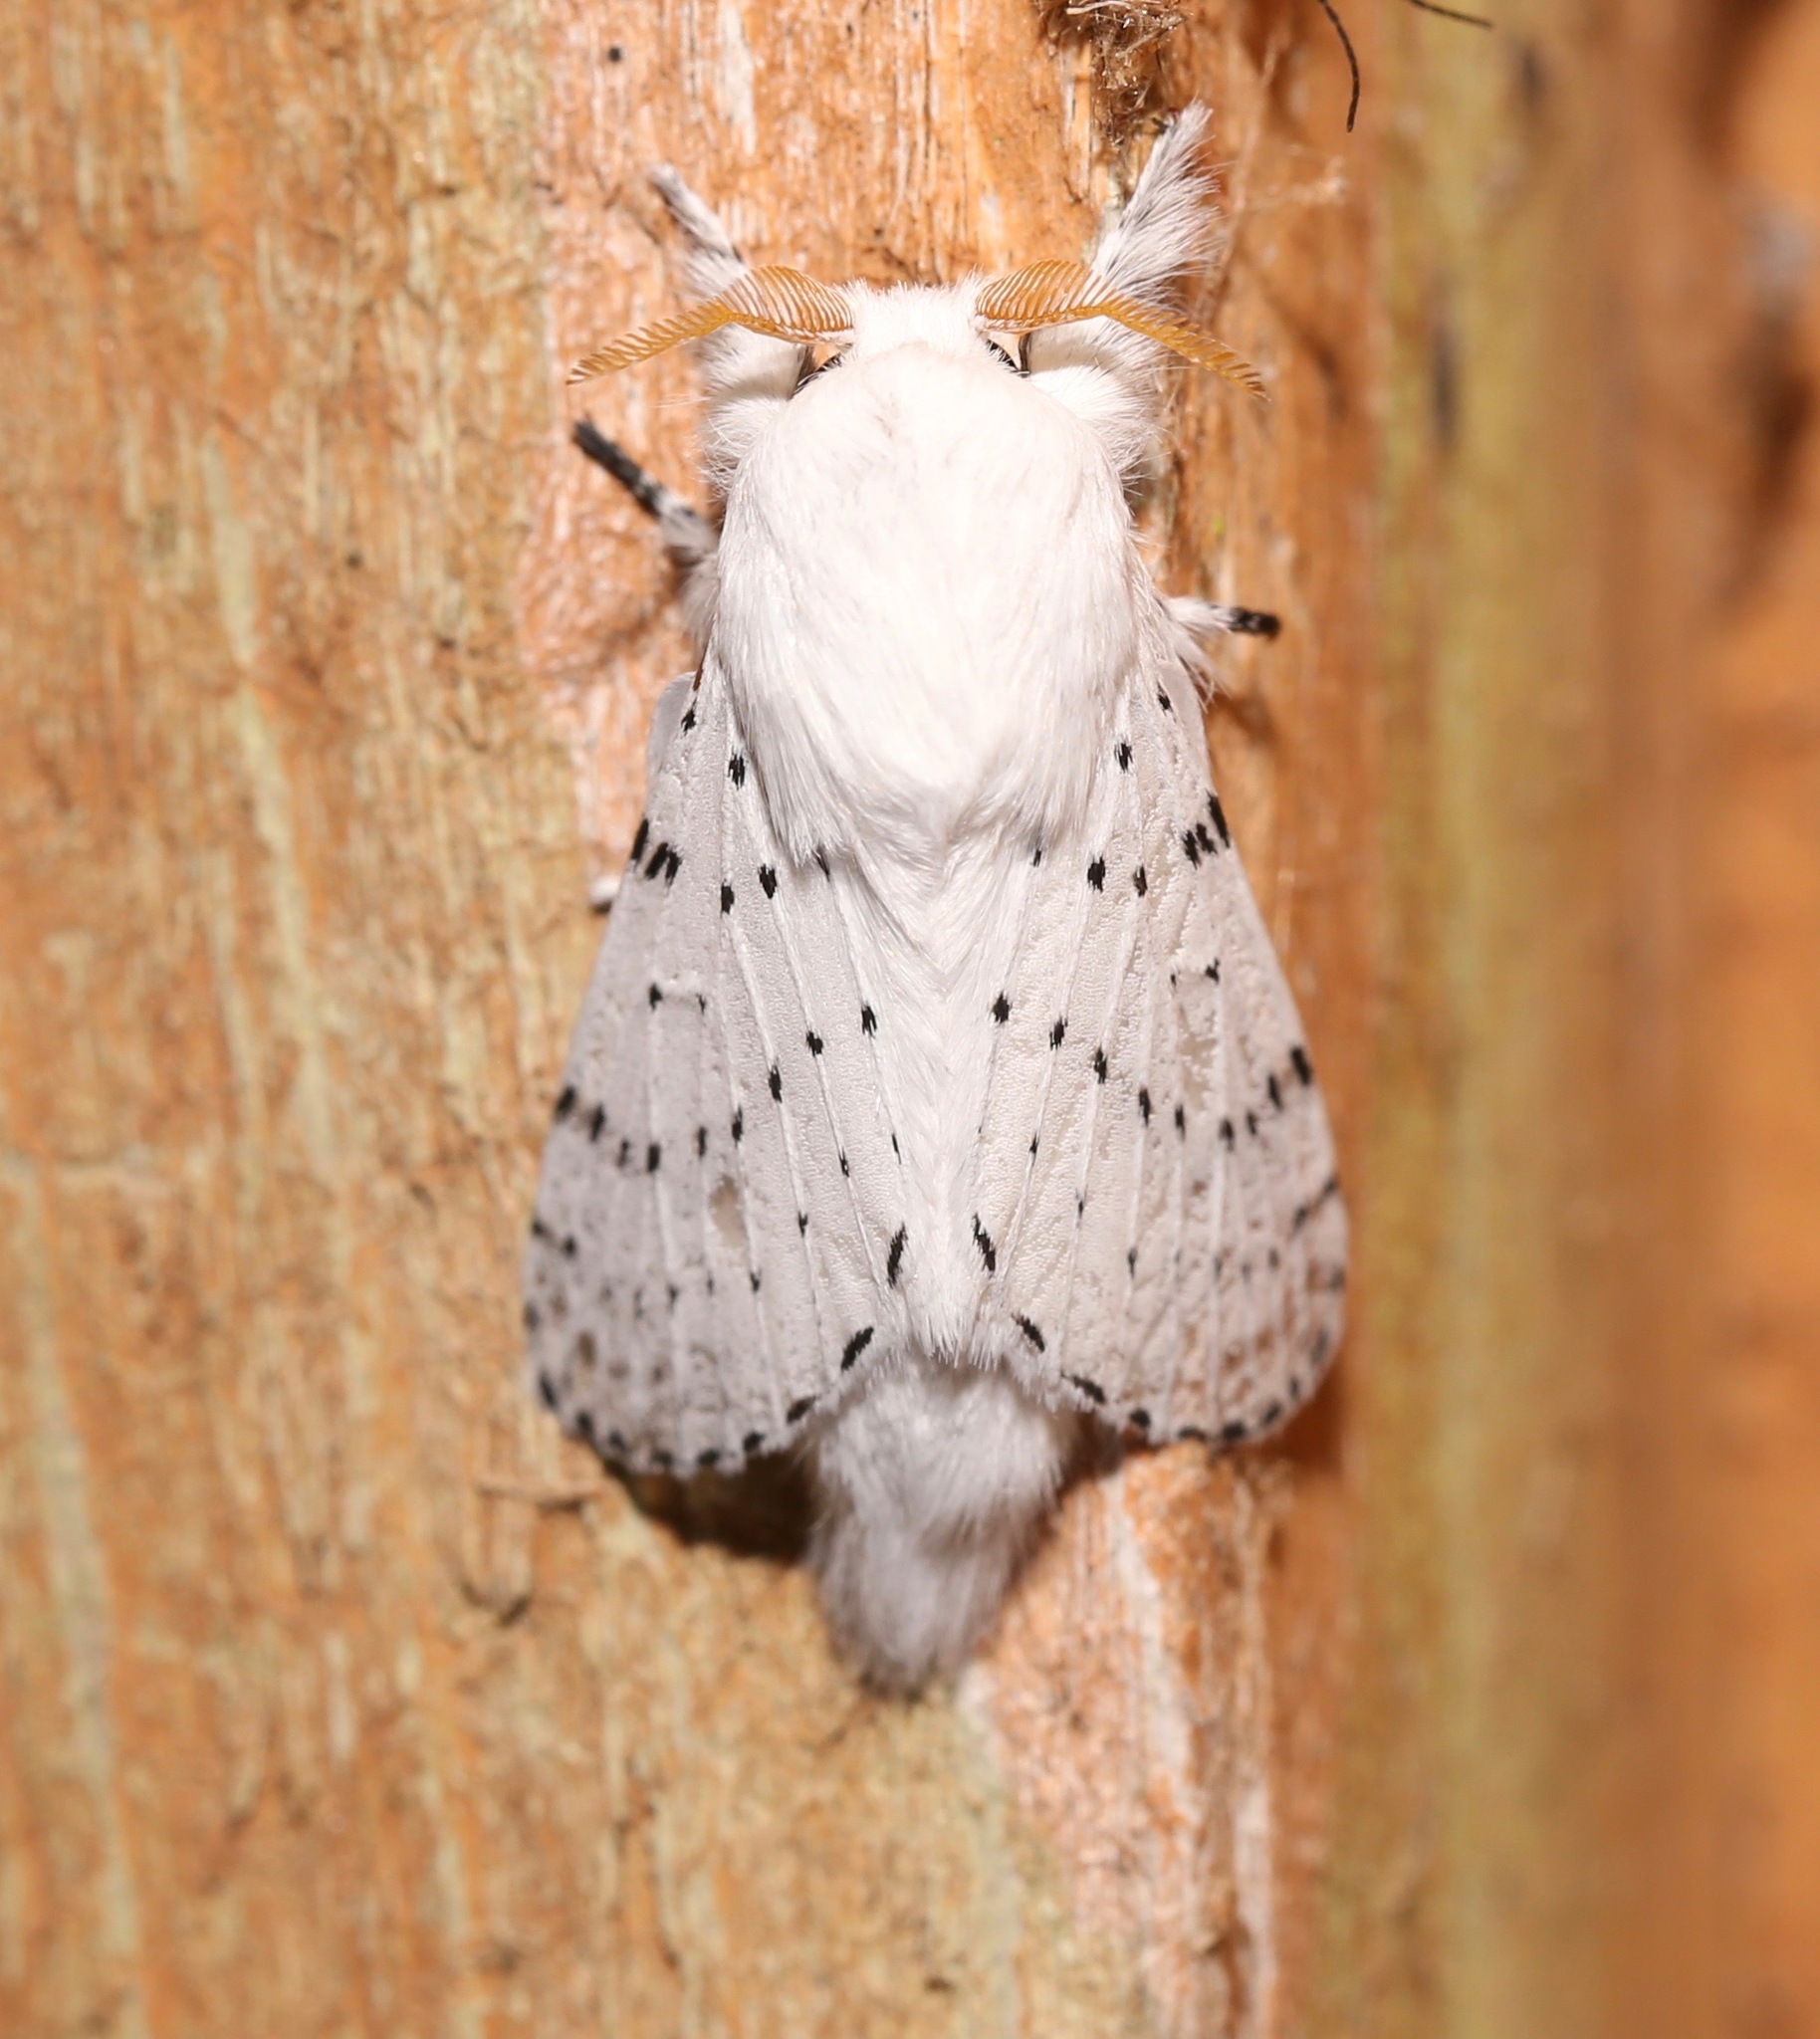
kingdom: Animalia
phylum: Arthropoda
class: Insecta
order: Lepidoptera
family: Lasiocampidae
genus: Artace
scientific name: Artace cribrarius
